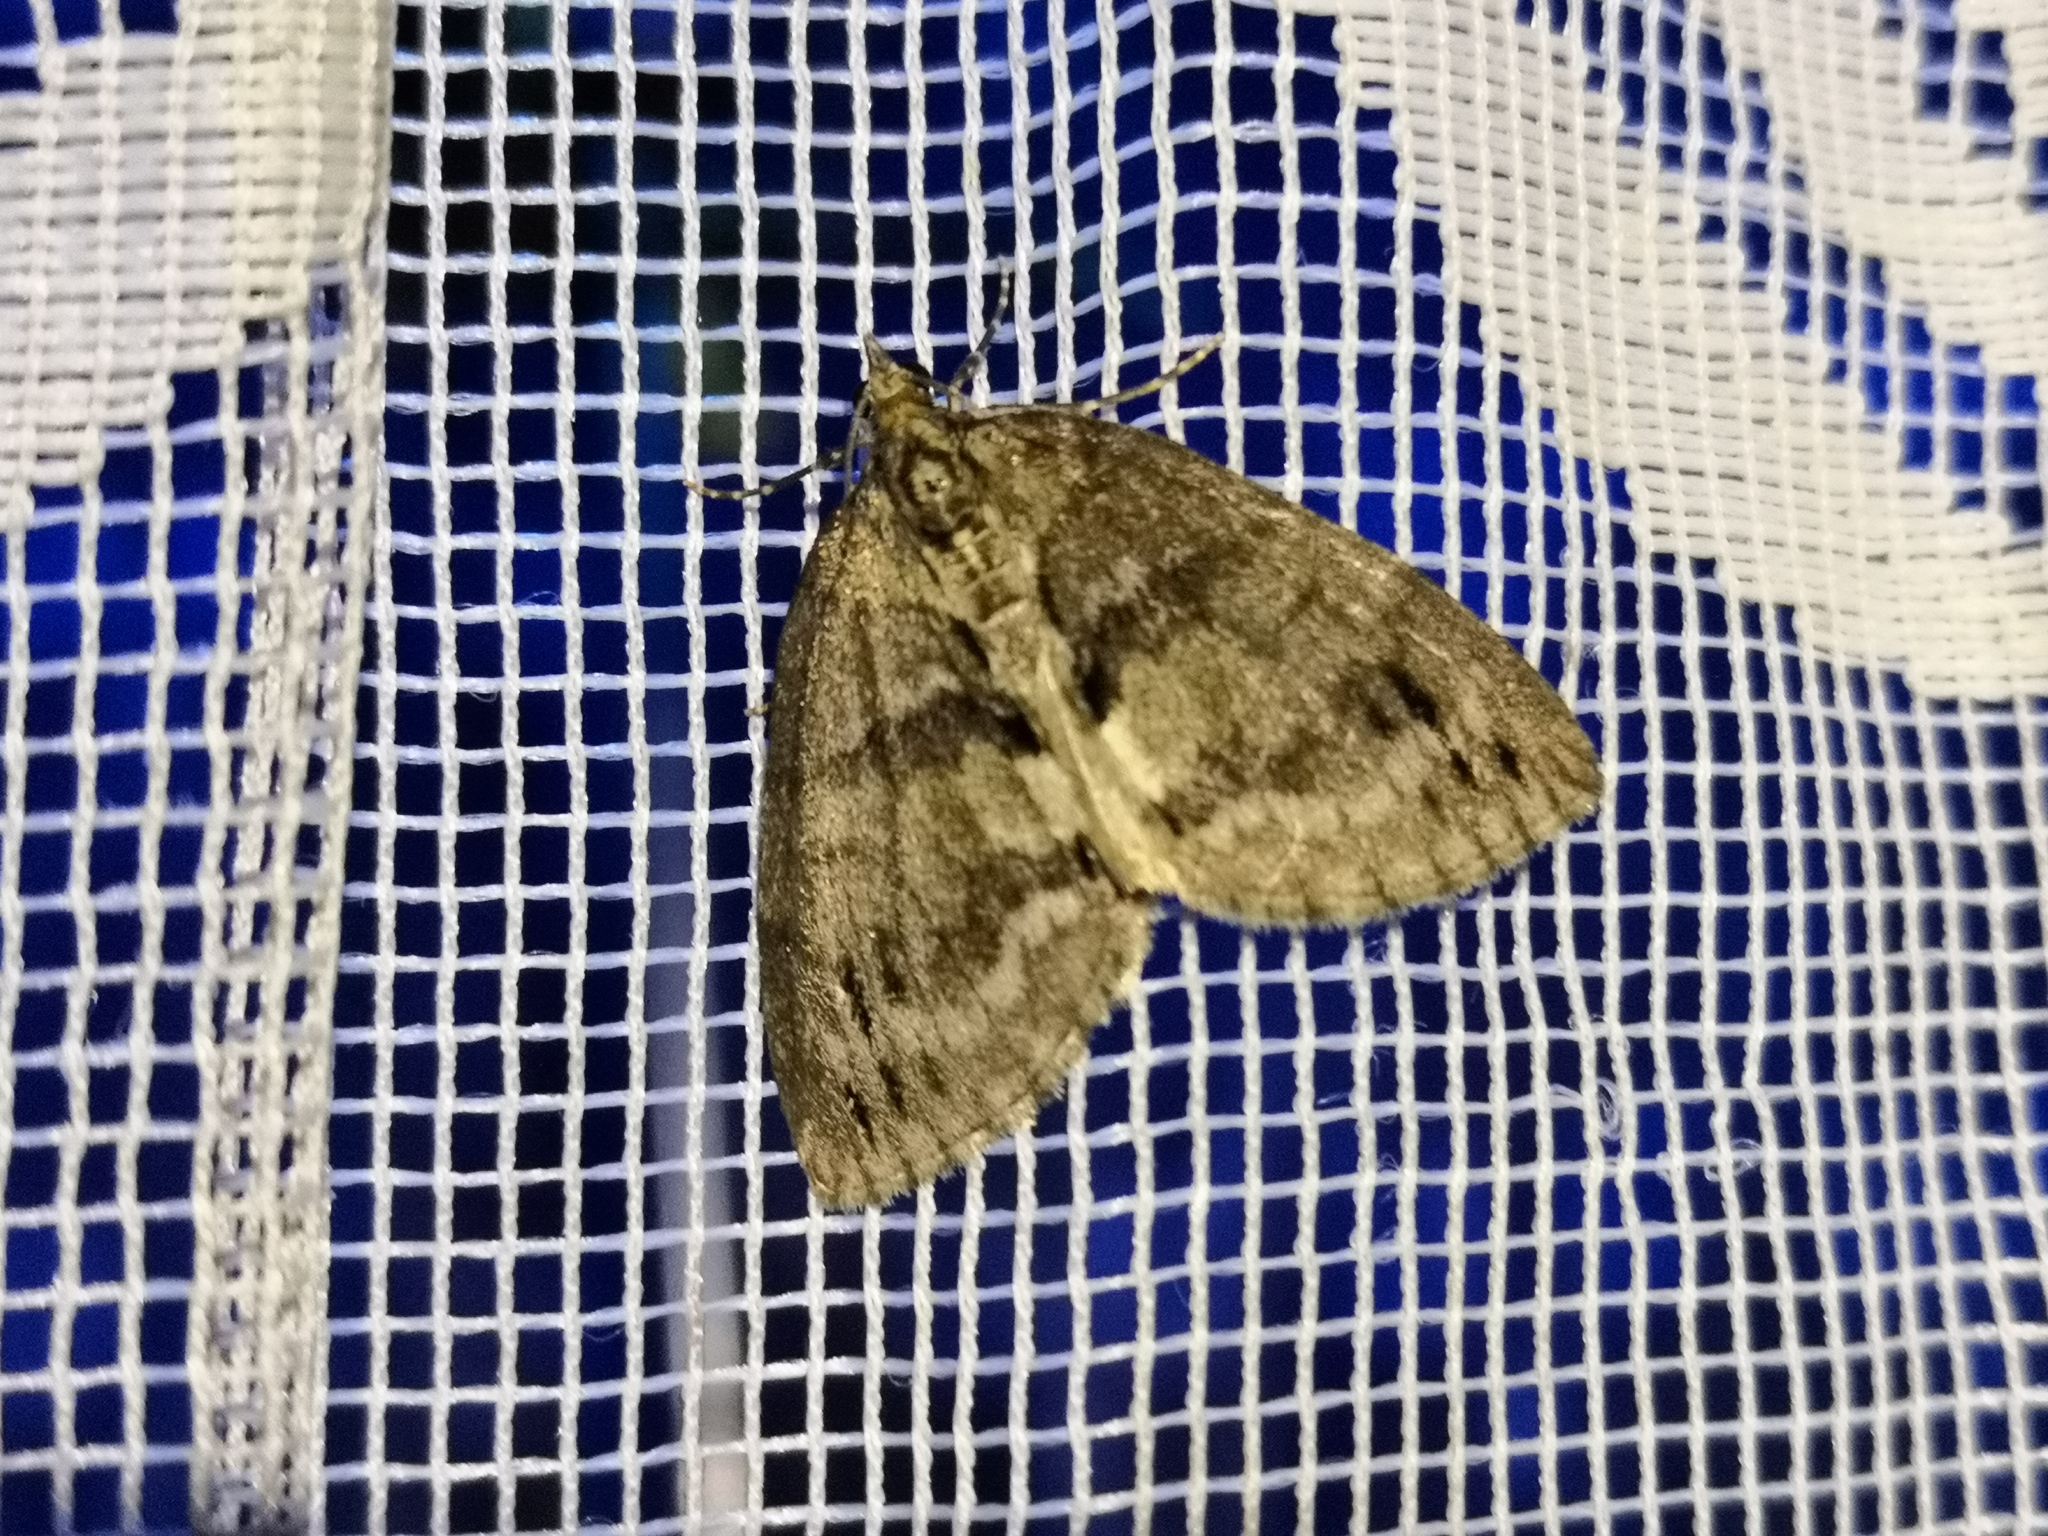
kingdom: Animalia
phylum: Arthropoda
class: Insecta
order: Lepidoptera
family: Geometridae
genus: Hydriomena
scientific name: Hydriomena impluviata
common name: May highflyer
